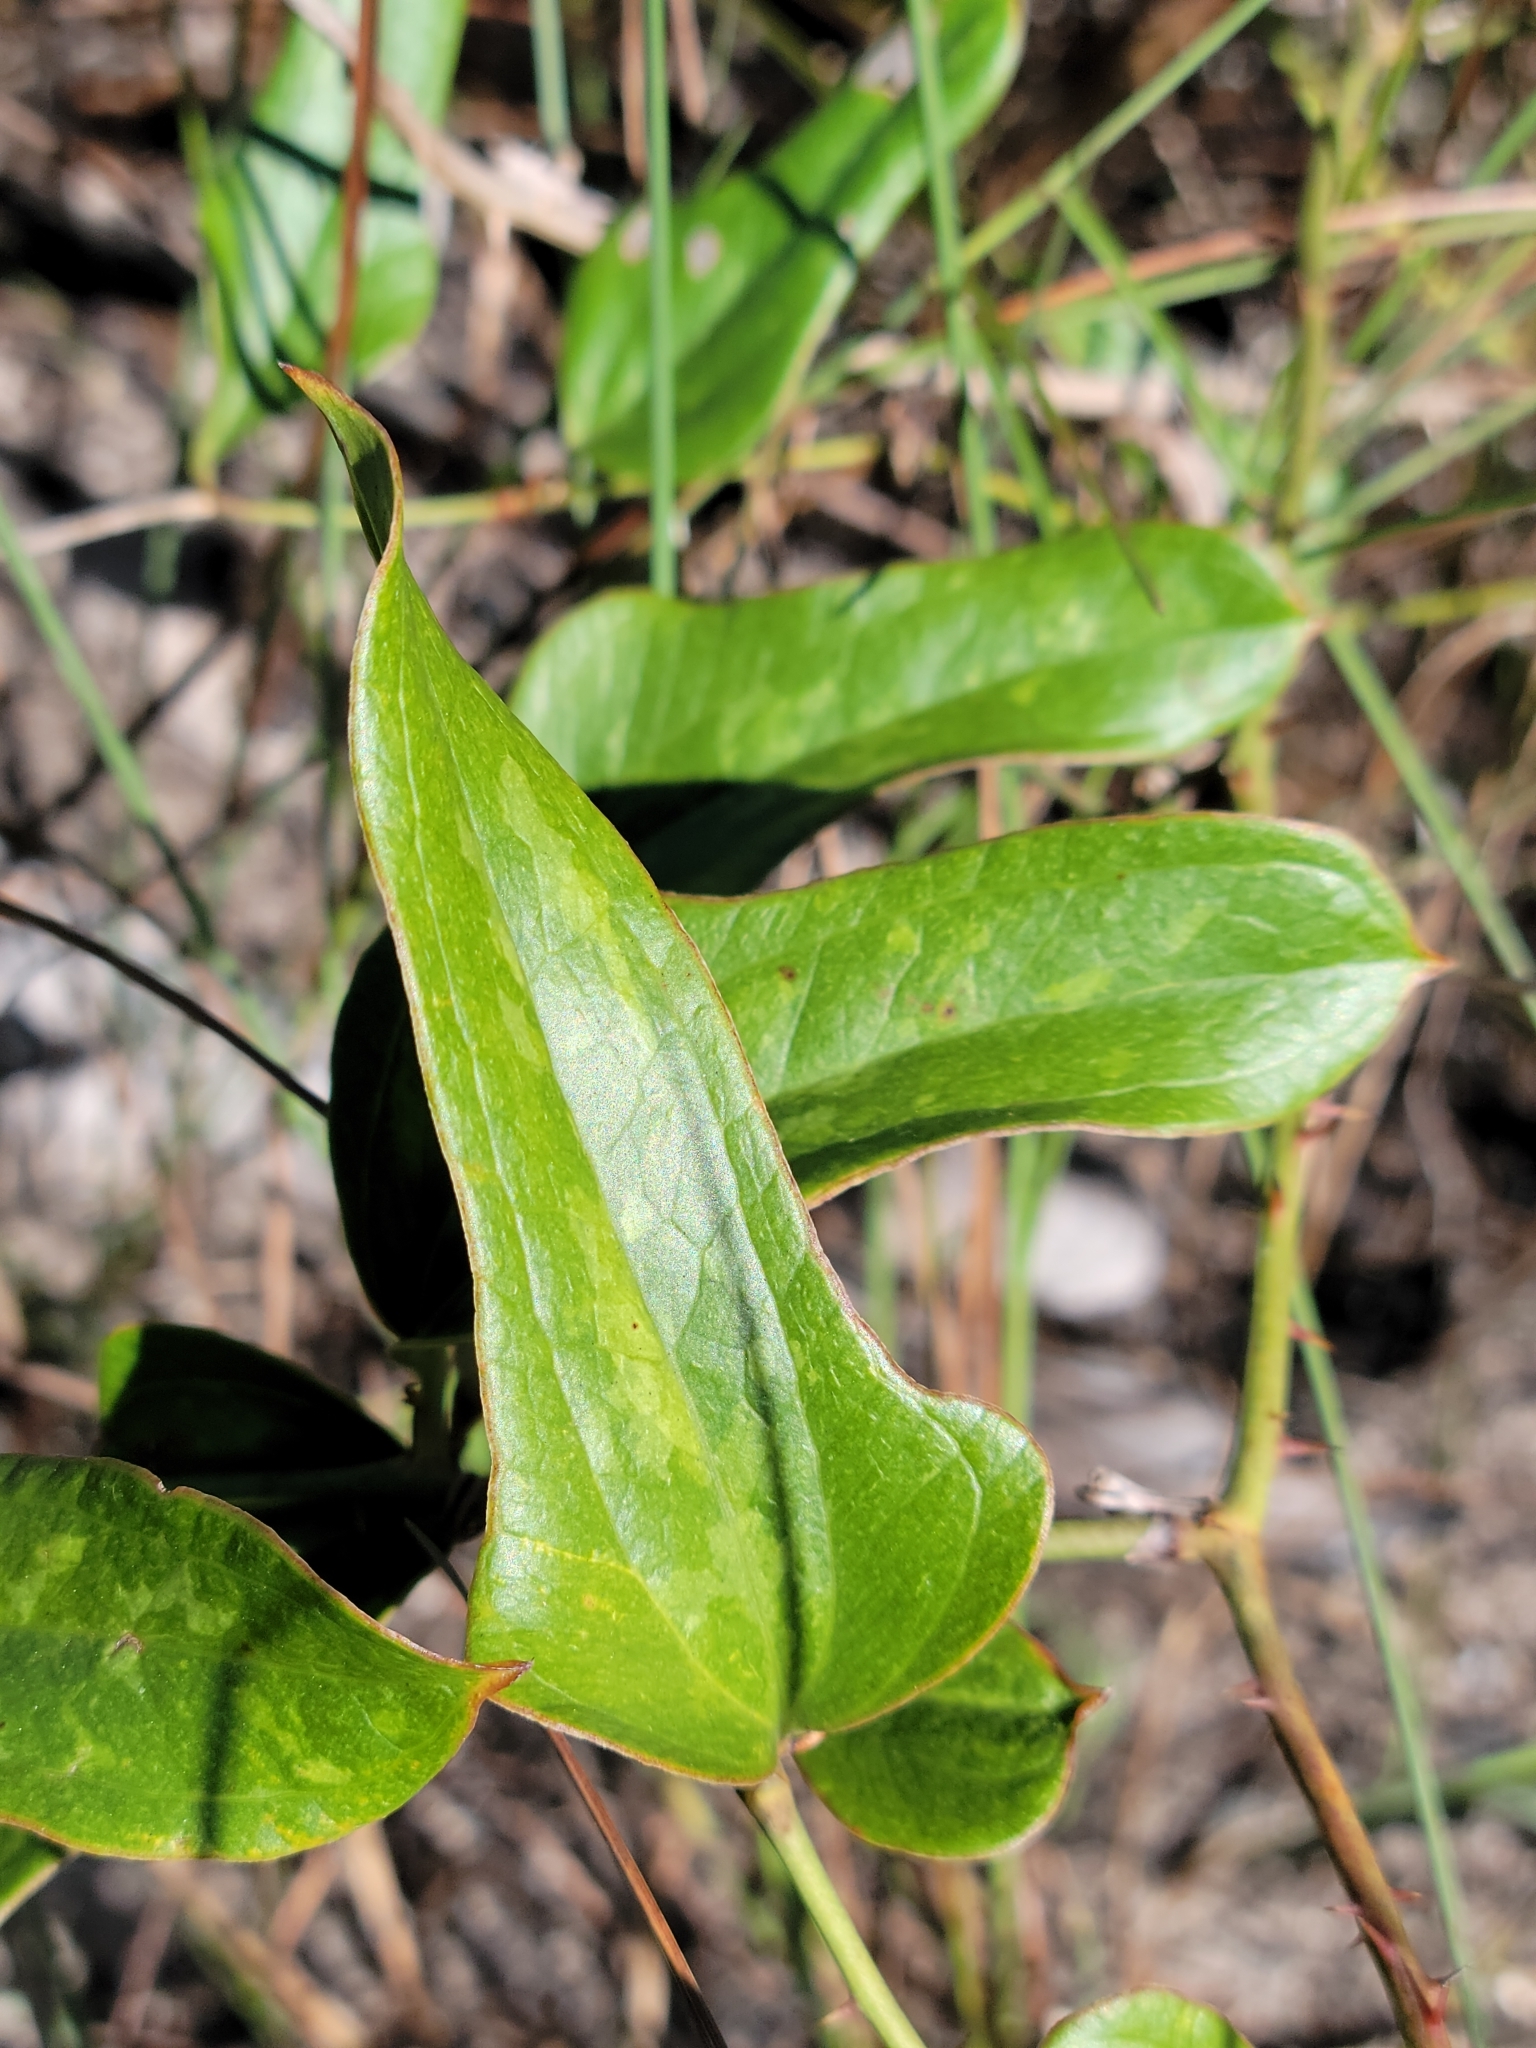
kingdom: Plantae
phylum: Tracheophyta
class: Liliopsida
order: Liliales
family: Smilacaceae
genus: Smilax
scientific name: Smilax auriculata
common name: Wild bamboo
